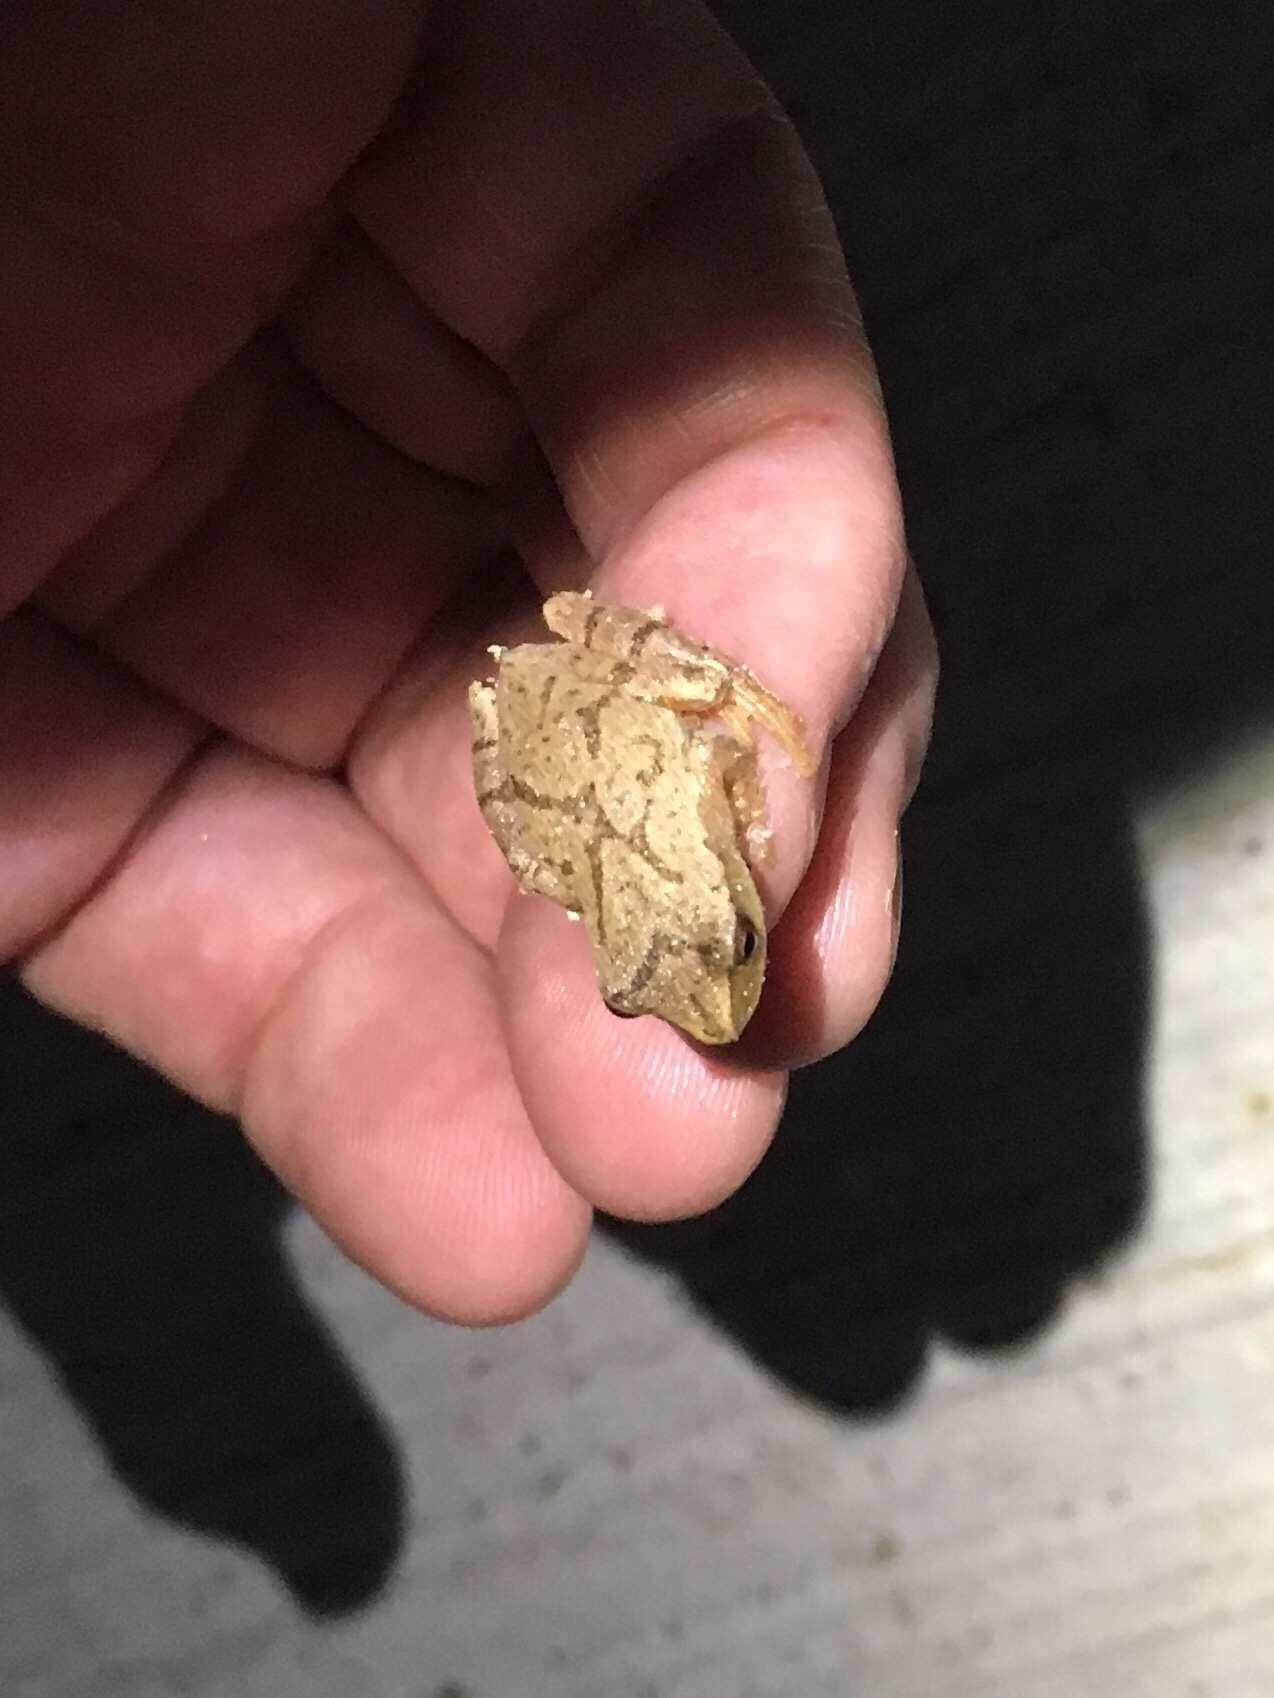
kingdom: Animalia
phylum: Chordata
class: Amphibia
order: Anura
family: Hylidae
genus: Pseudacris
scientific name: Pseudacris crucifer
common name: Spring peeper
